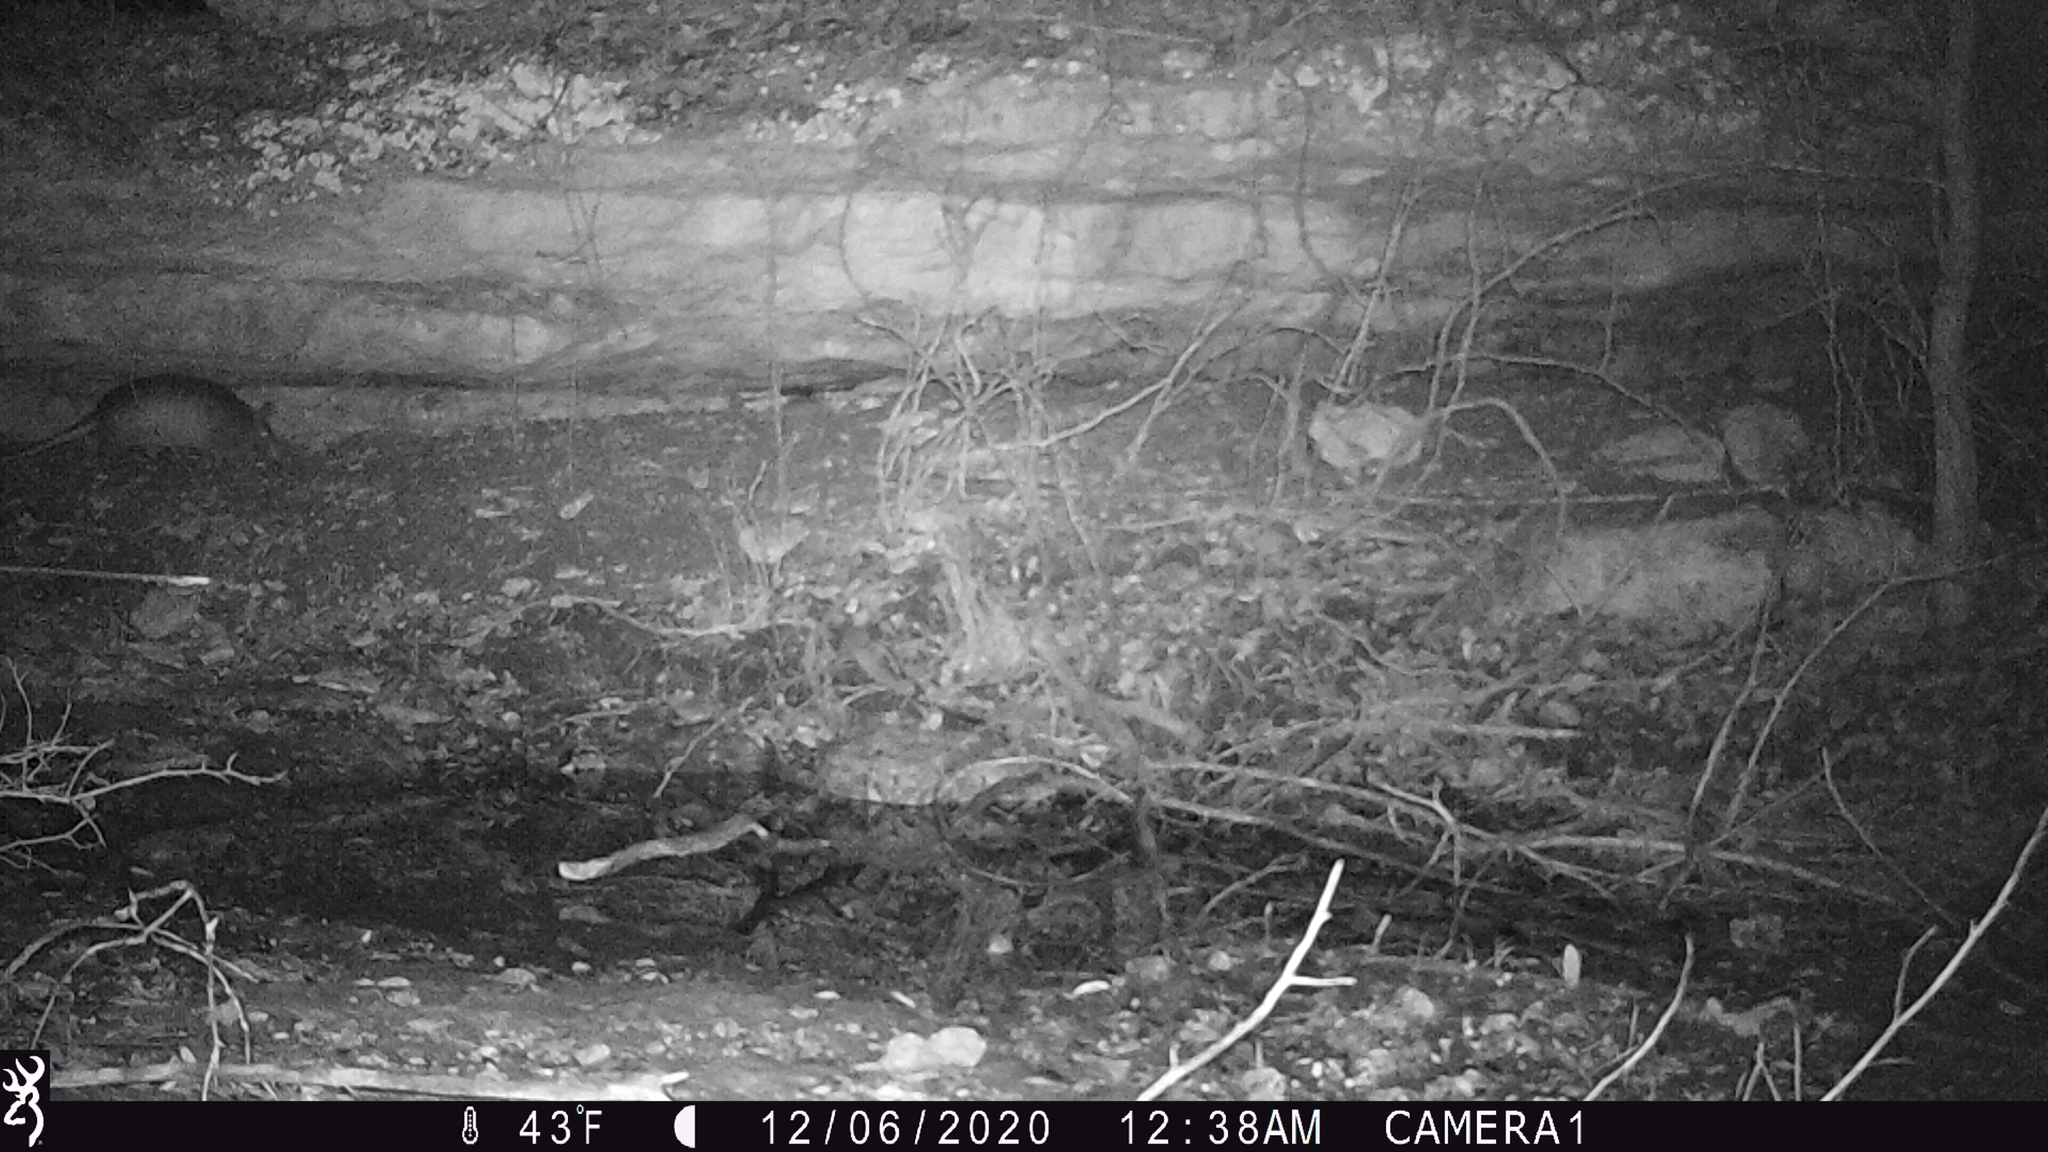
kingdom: Animalia
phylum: Chordata
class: Mammalia
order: Cingulata
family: Dasypodidae
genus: Dasypus
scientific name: Dasypus novemcinctus
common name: Nine-banded armadillo
